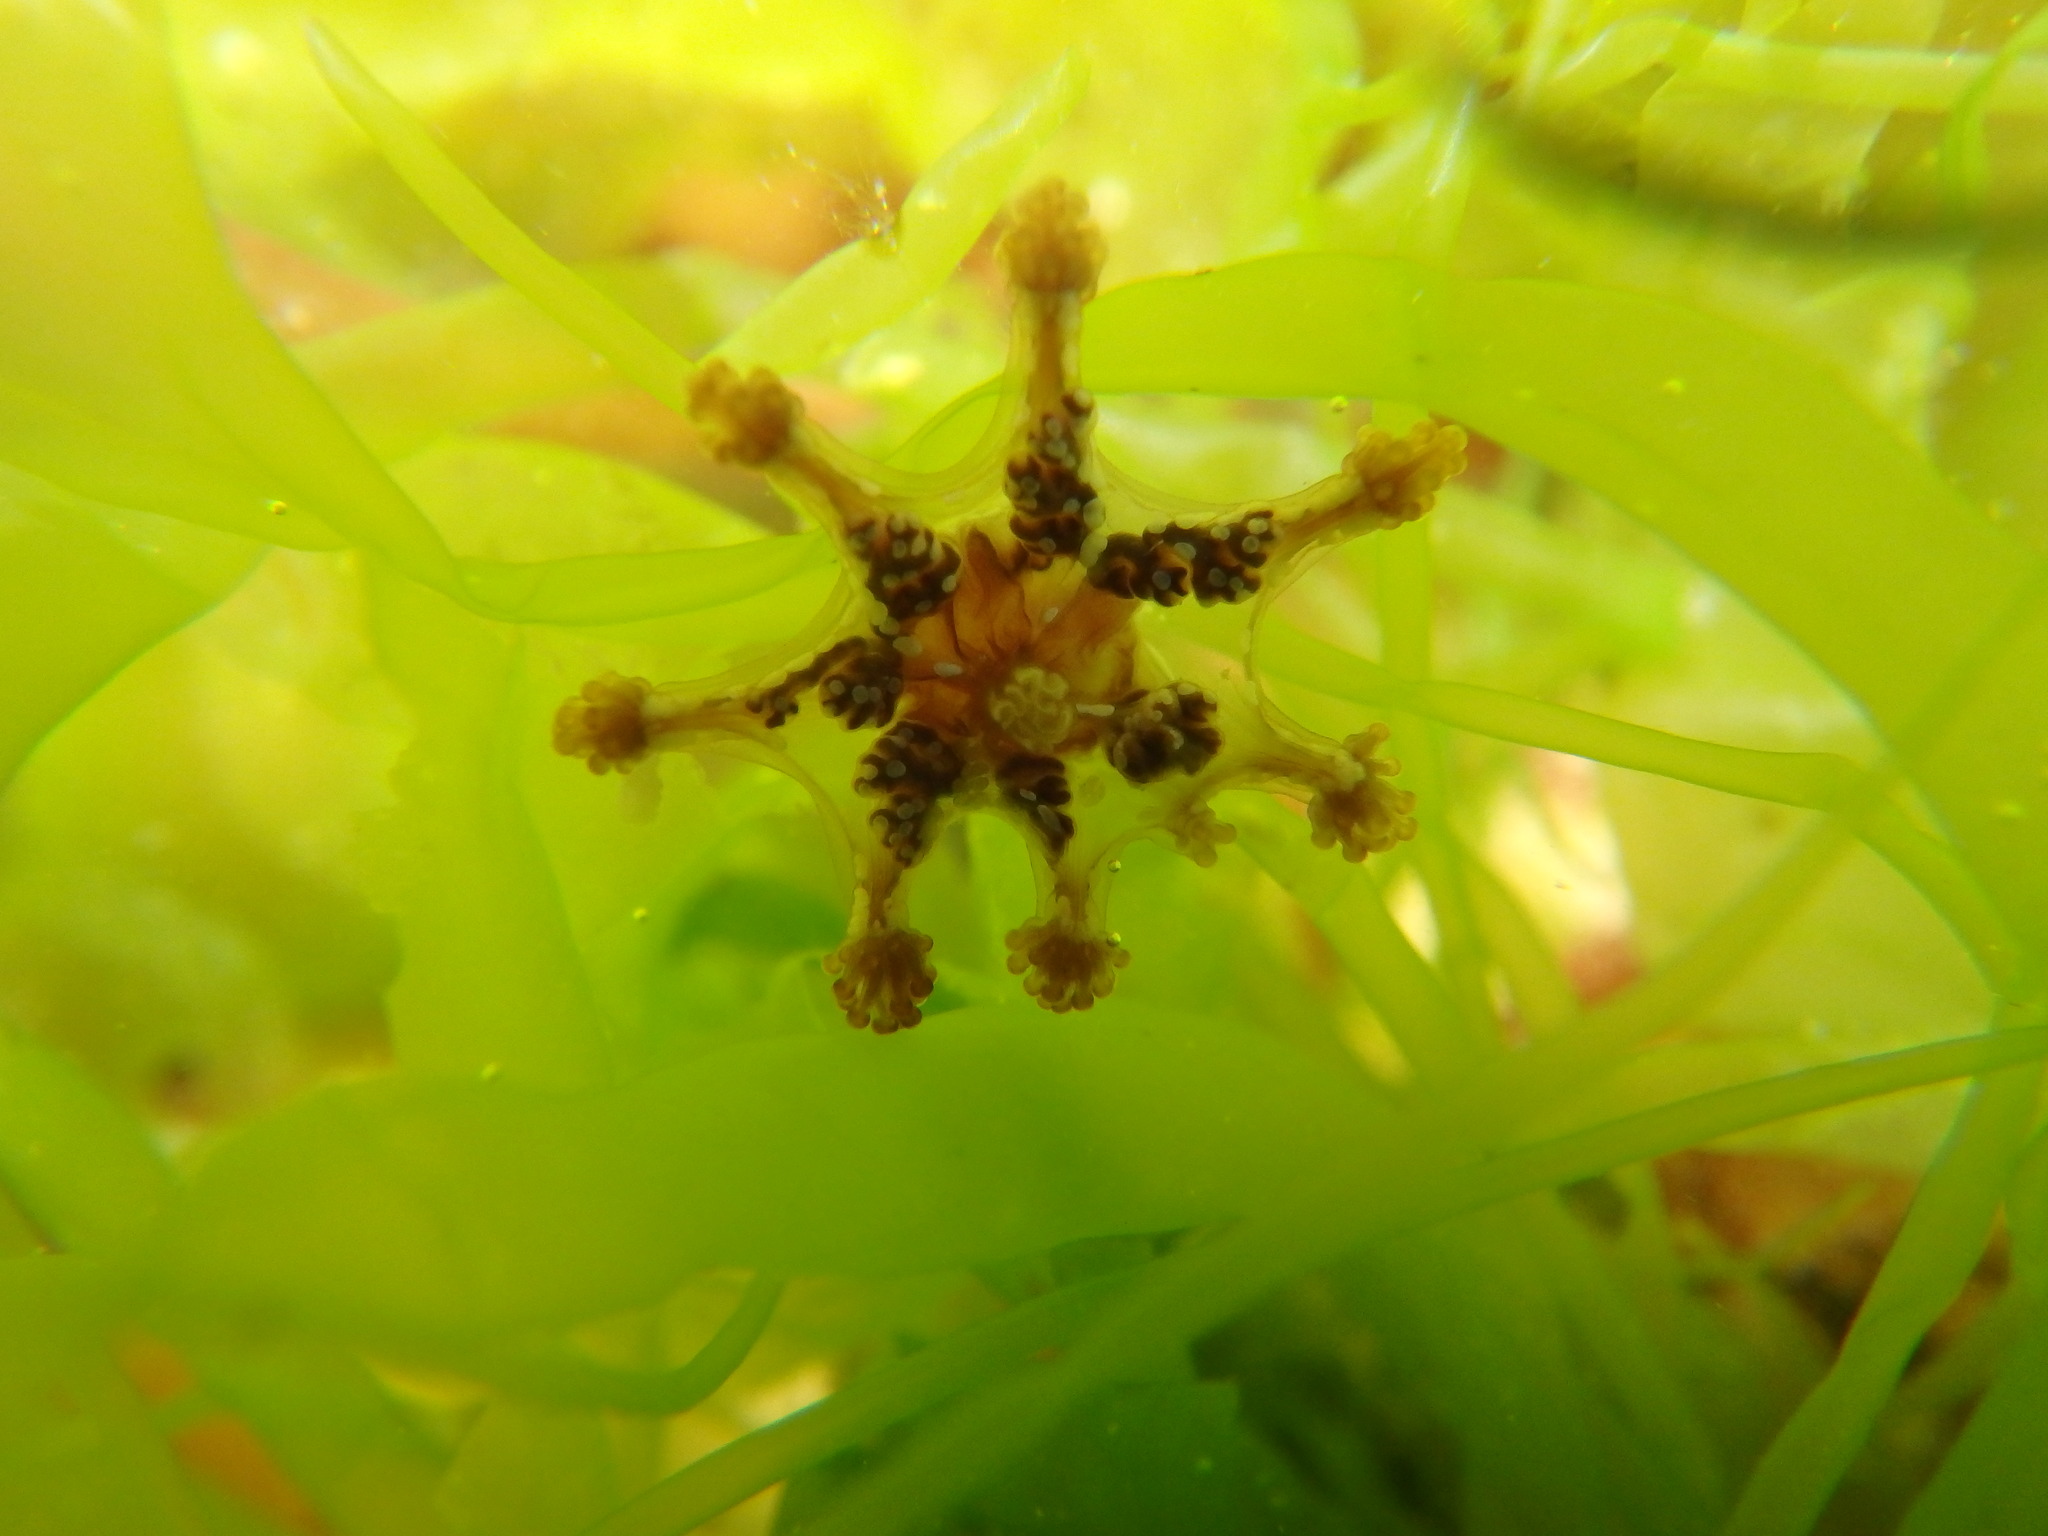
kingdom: Animalia
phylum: Cnidaria
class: Staurozoa
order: Stauromedusae
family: Kishinouyeidae
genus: Calvadosia
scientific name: Calvadosia cruxmelitensis
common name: St. john's jellyfish
